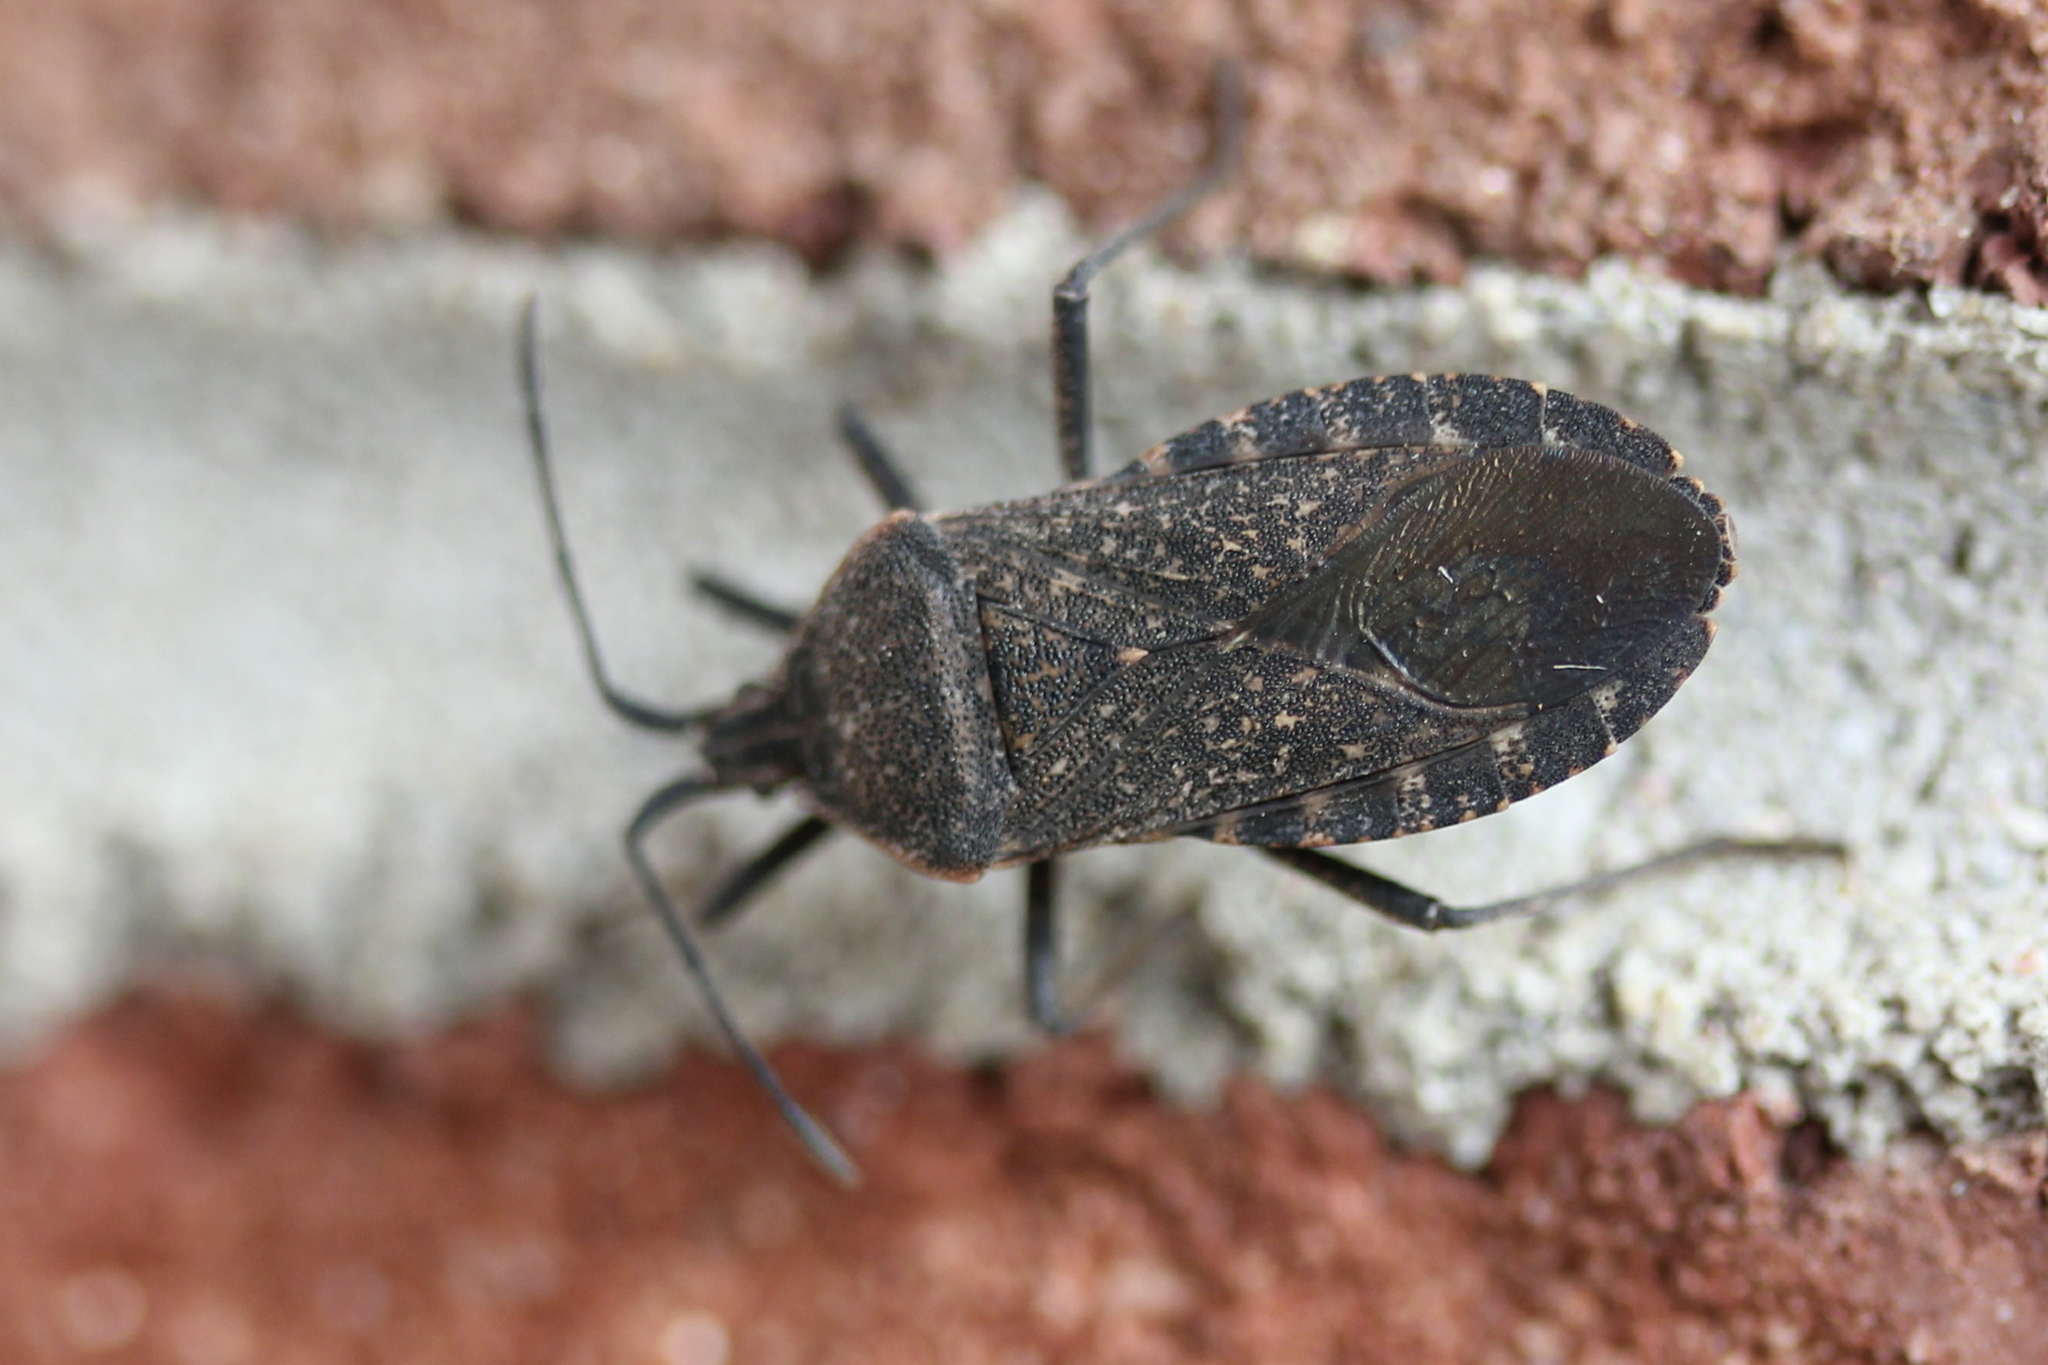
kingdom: Animalia
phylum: Arthropoda
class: Insecta
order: Hemiptera
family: Coreidae
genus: Anasa
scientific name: Anasa tristis
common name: Squash bug
